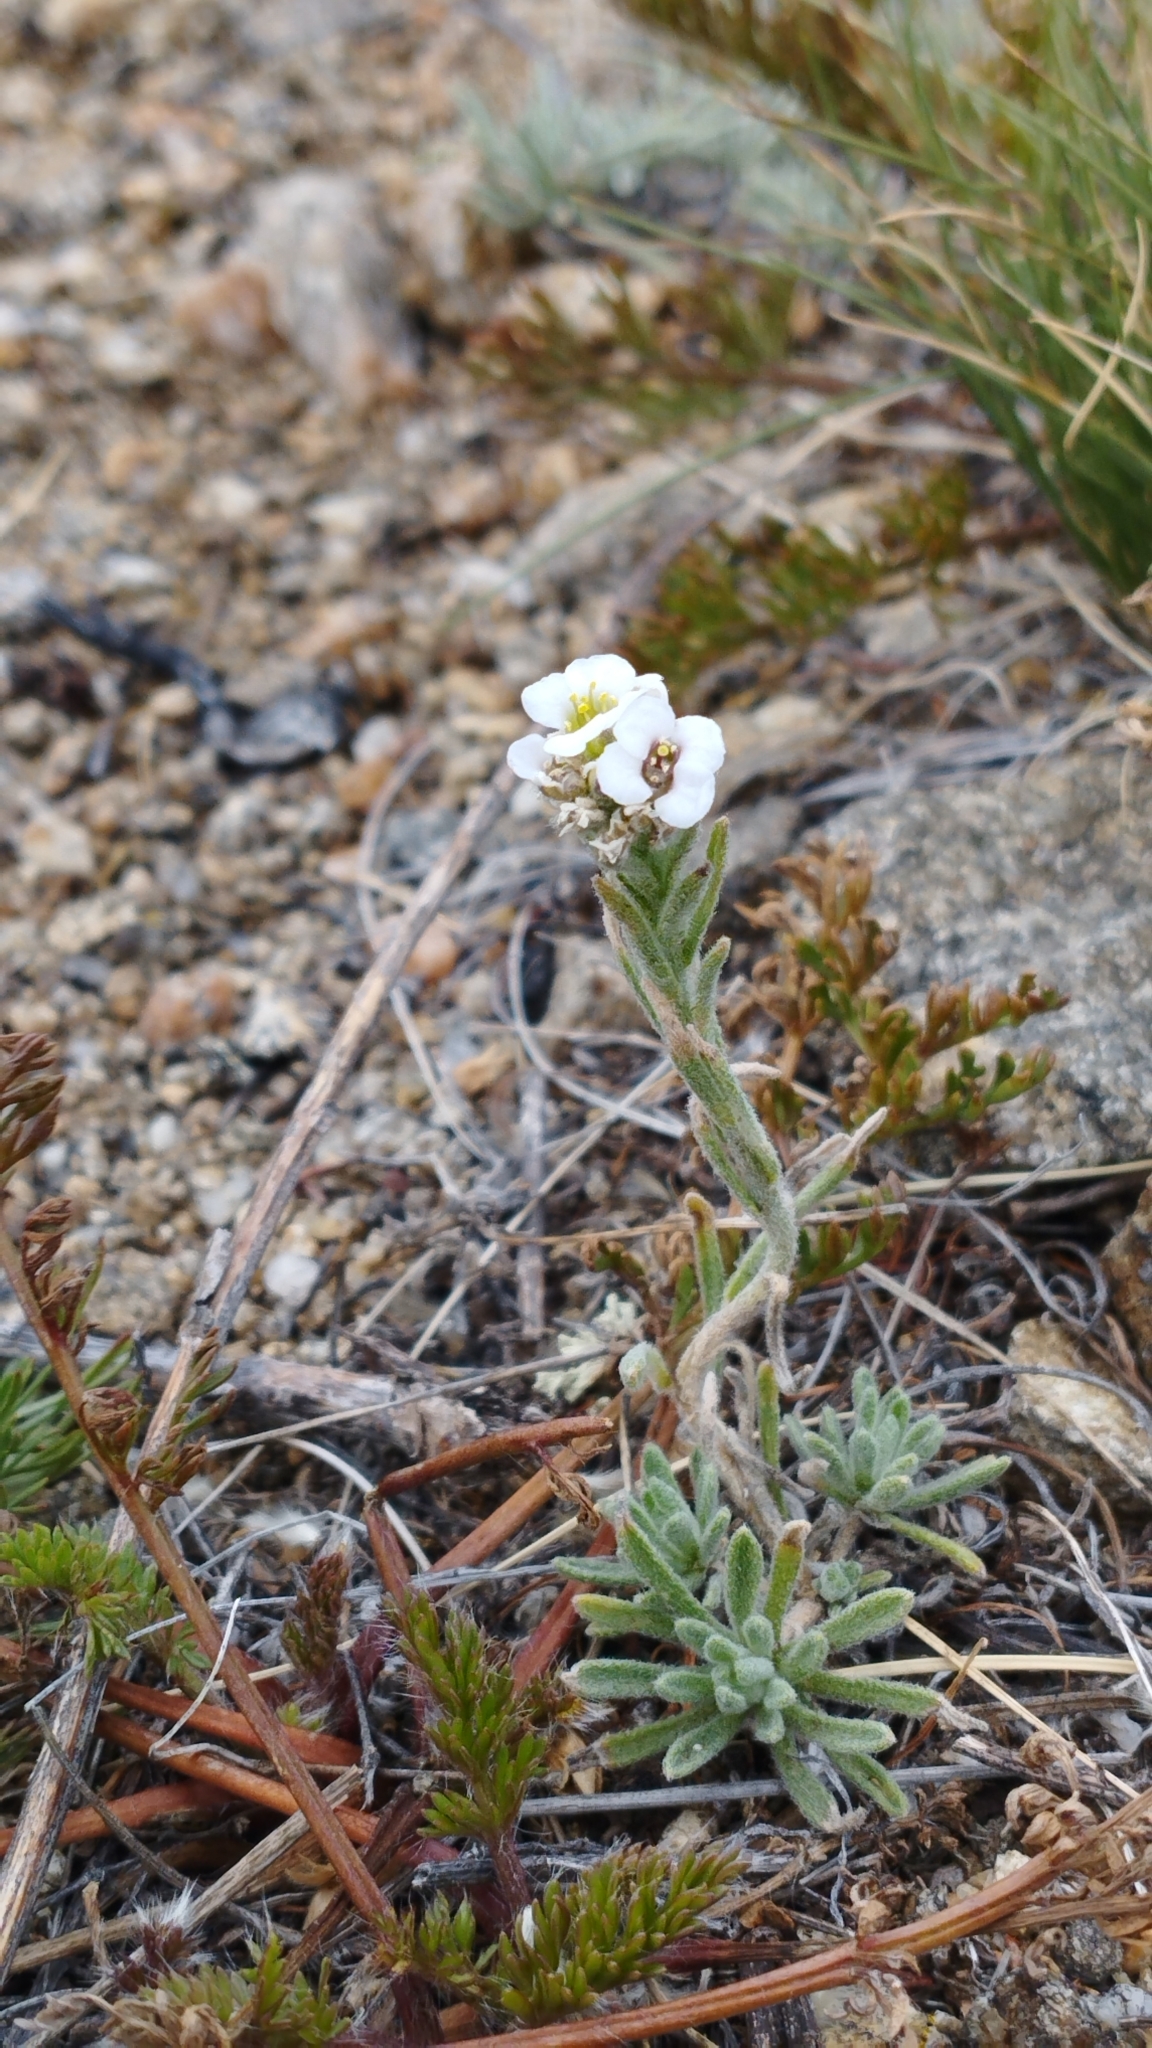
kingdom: Plantae
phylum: Tracheophyta
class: Magnoliopsida
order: Brassicales
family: Brassicaceae
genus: Stevenia
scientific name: Stevenia tenuifolia
